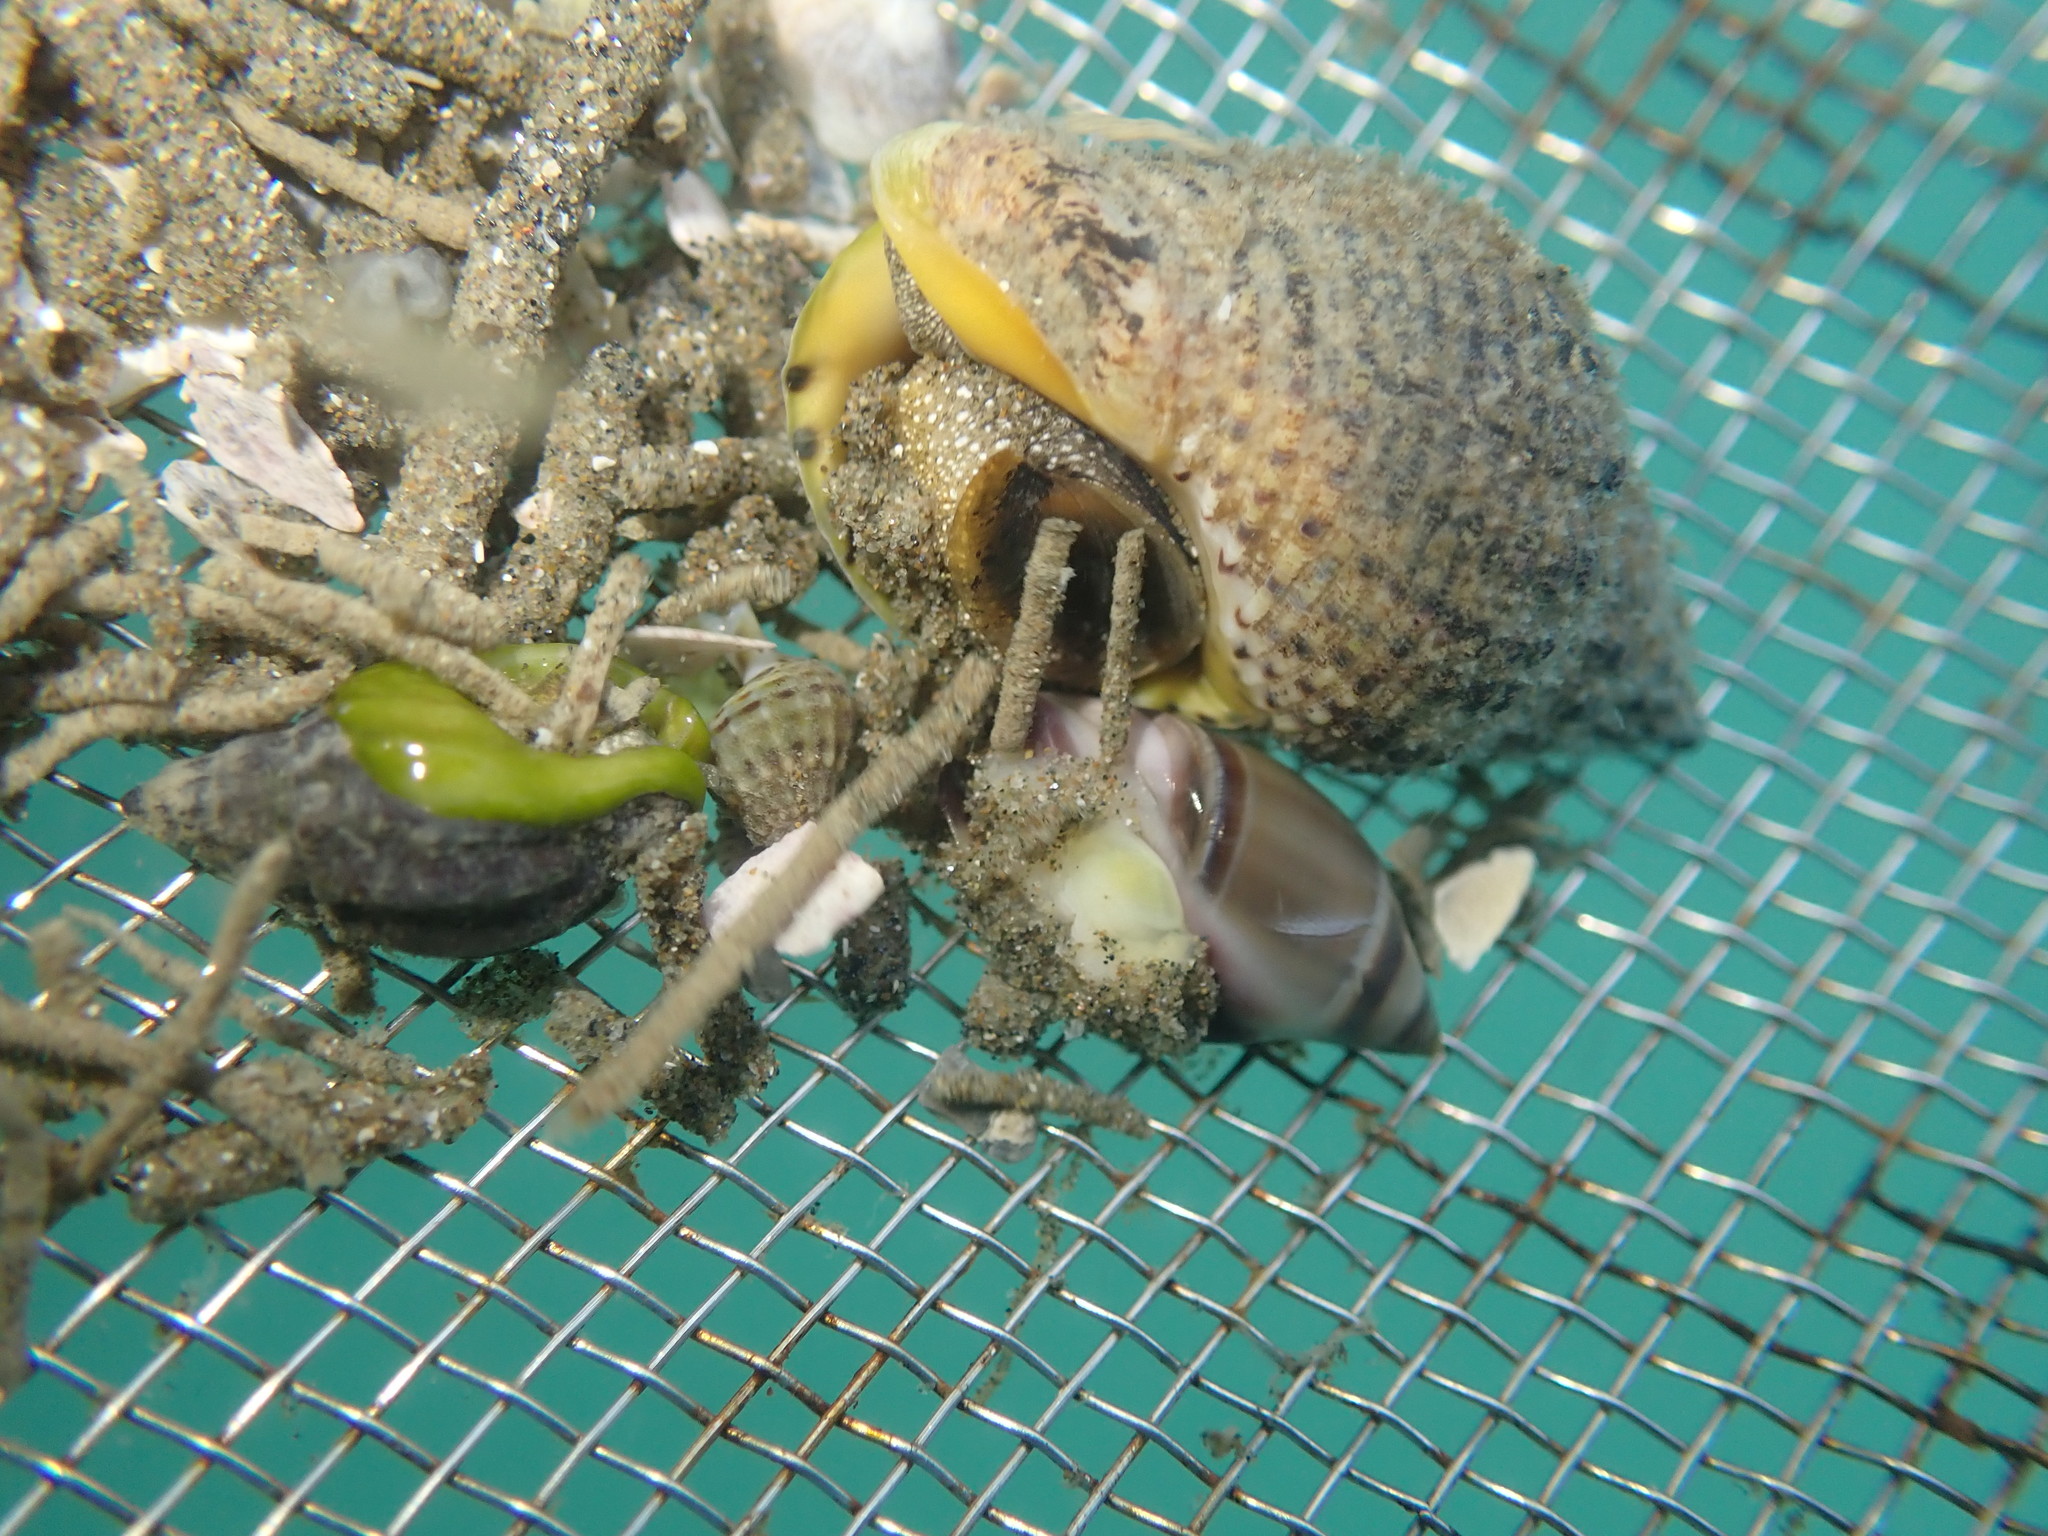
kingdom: Animalia
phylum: Mollusca
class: Gastropoda
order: Neogastropoda
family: Ancillariidae
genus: Amalda
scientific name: Amalda australis
